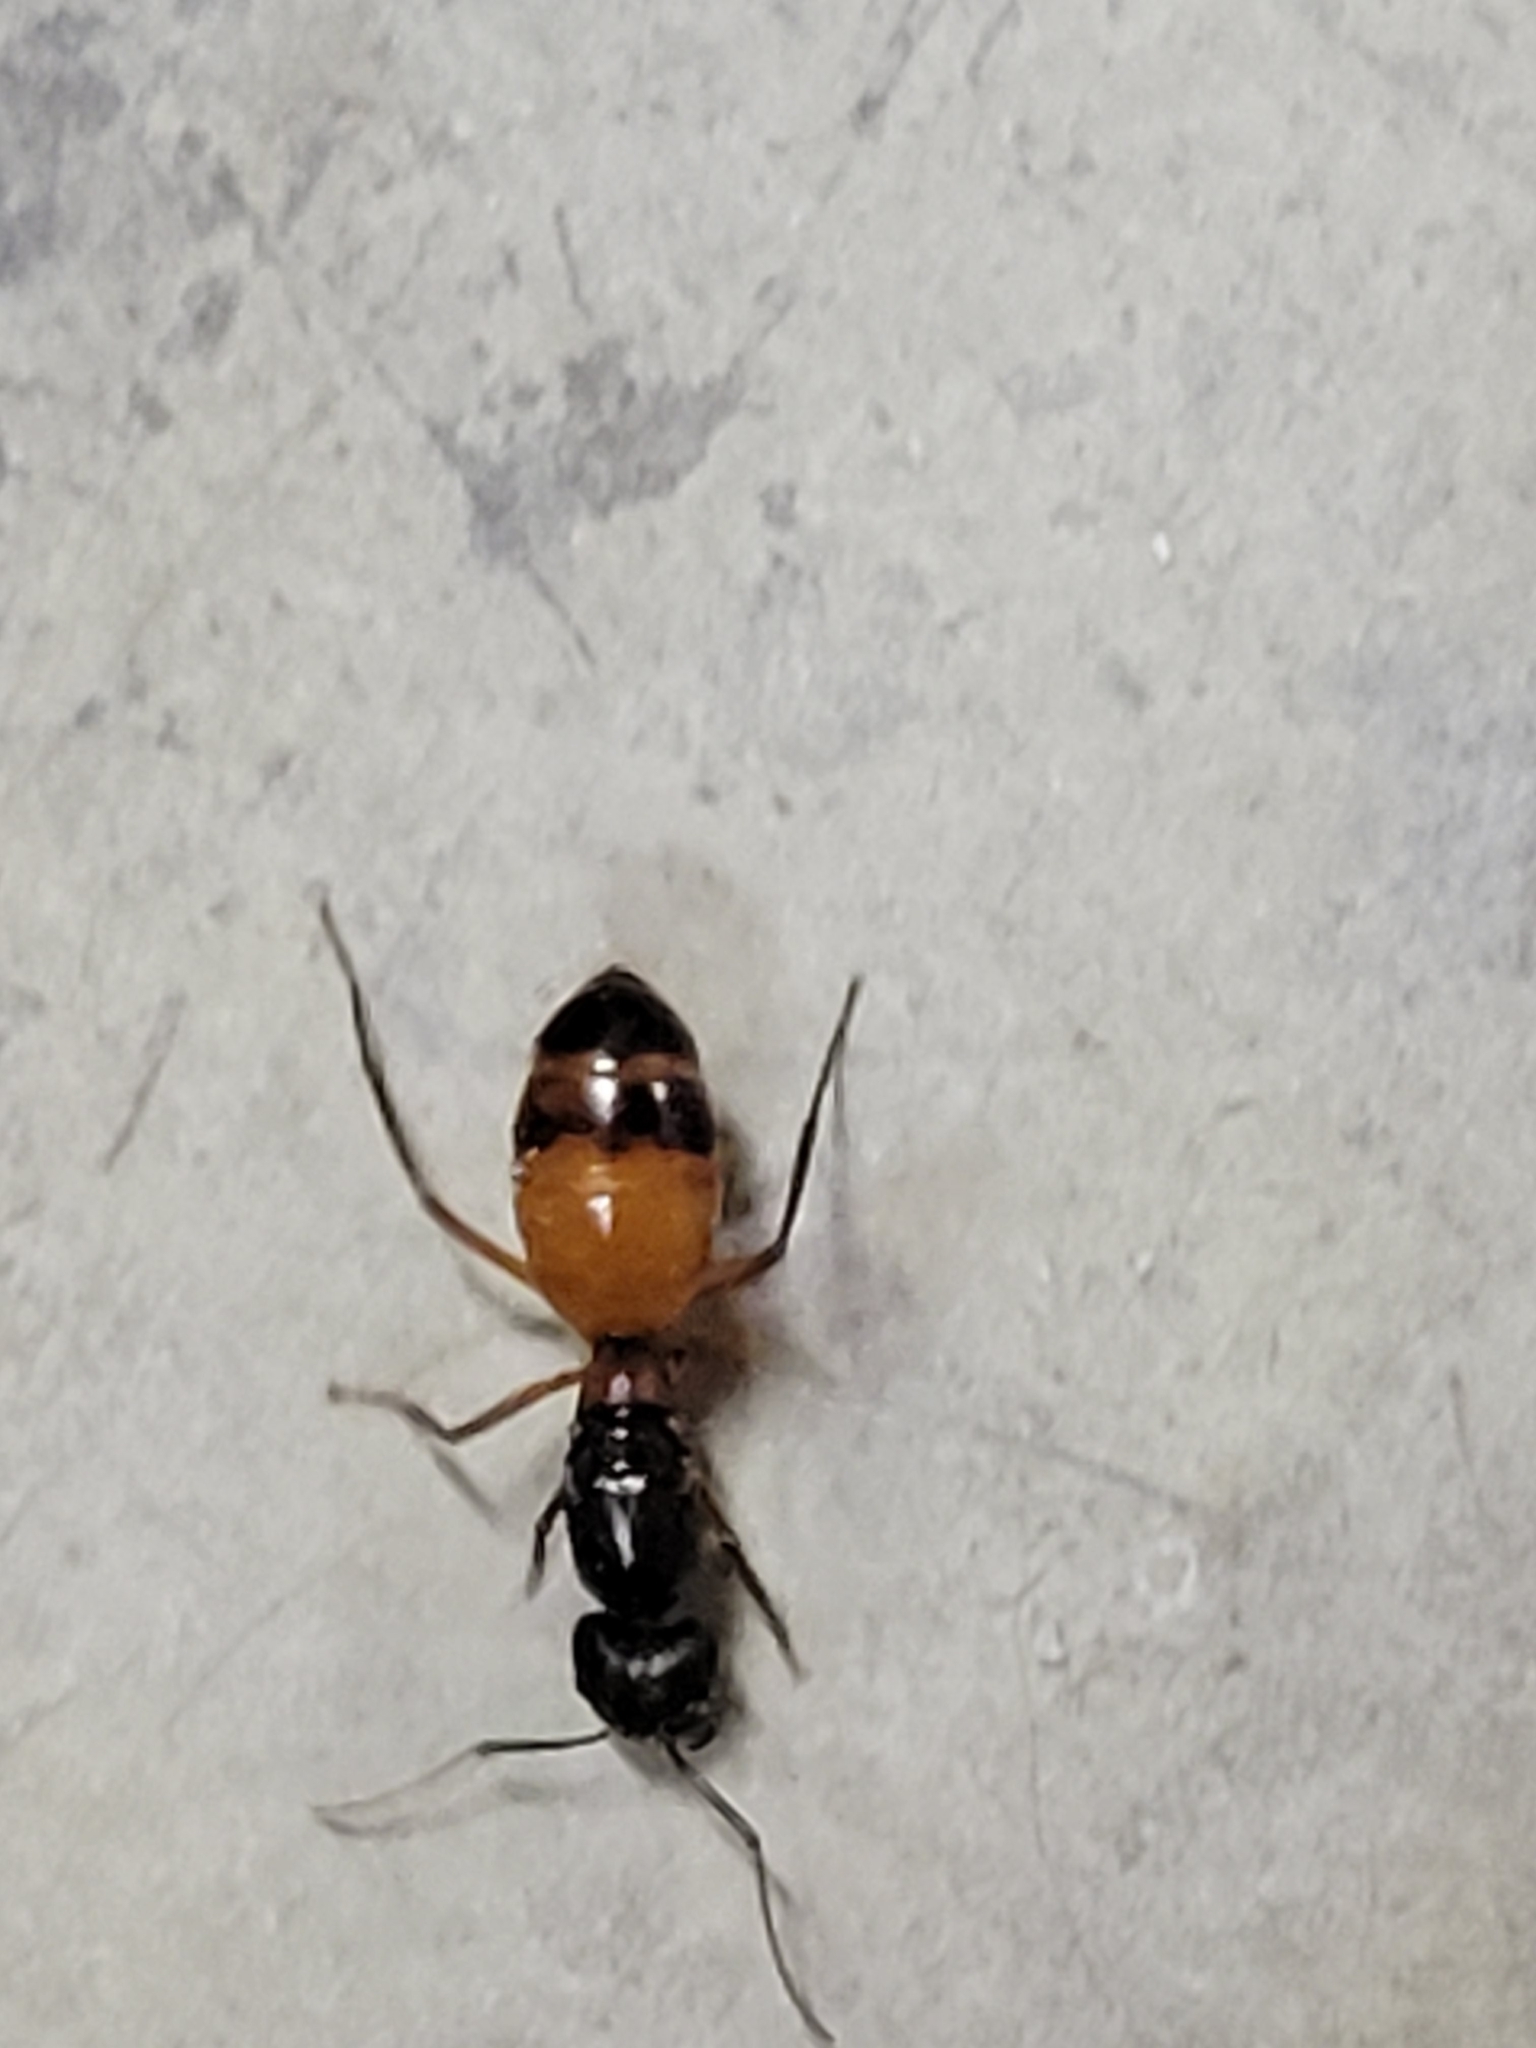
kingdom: Animalia
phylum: Arthropoda
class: Insecta
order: Hymenoptera
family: Formicidae
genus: Camponotus
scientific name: Camponotus semitestaceus
